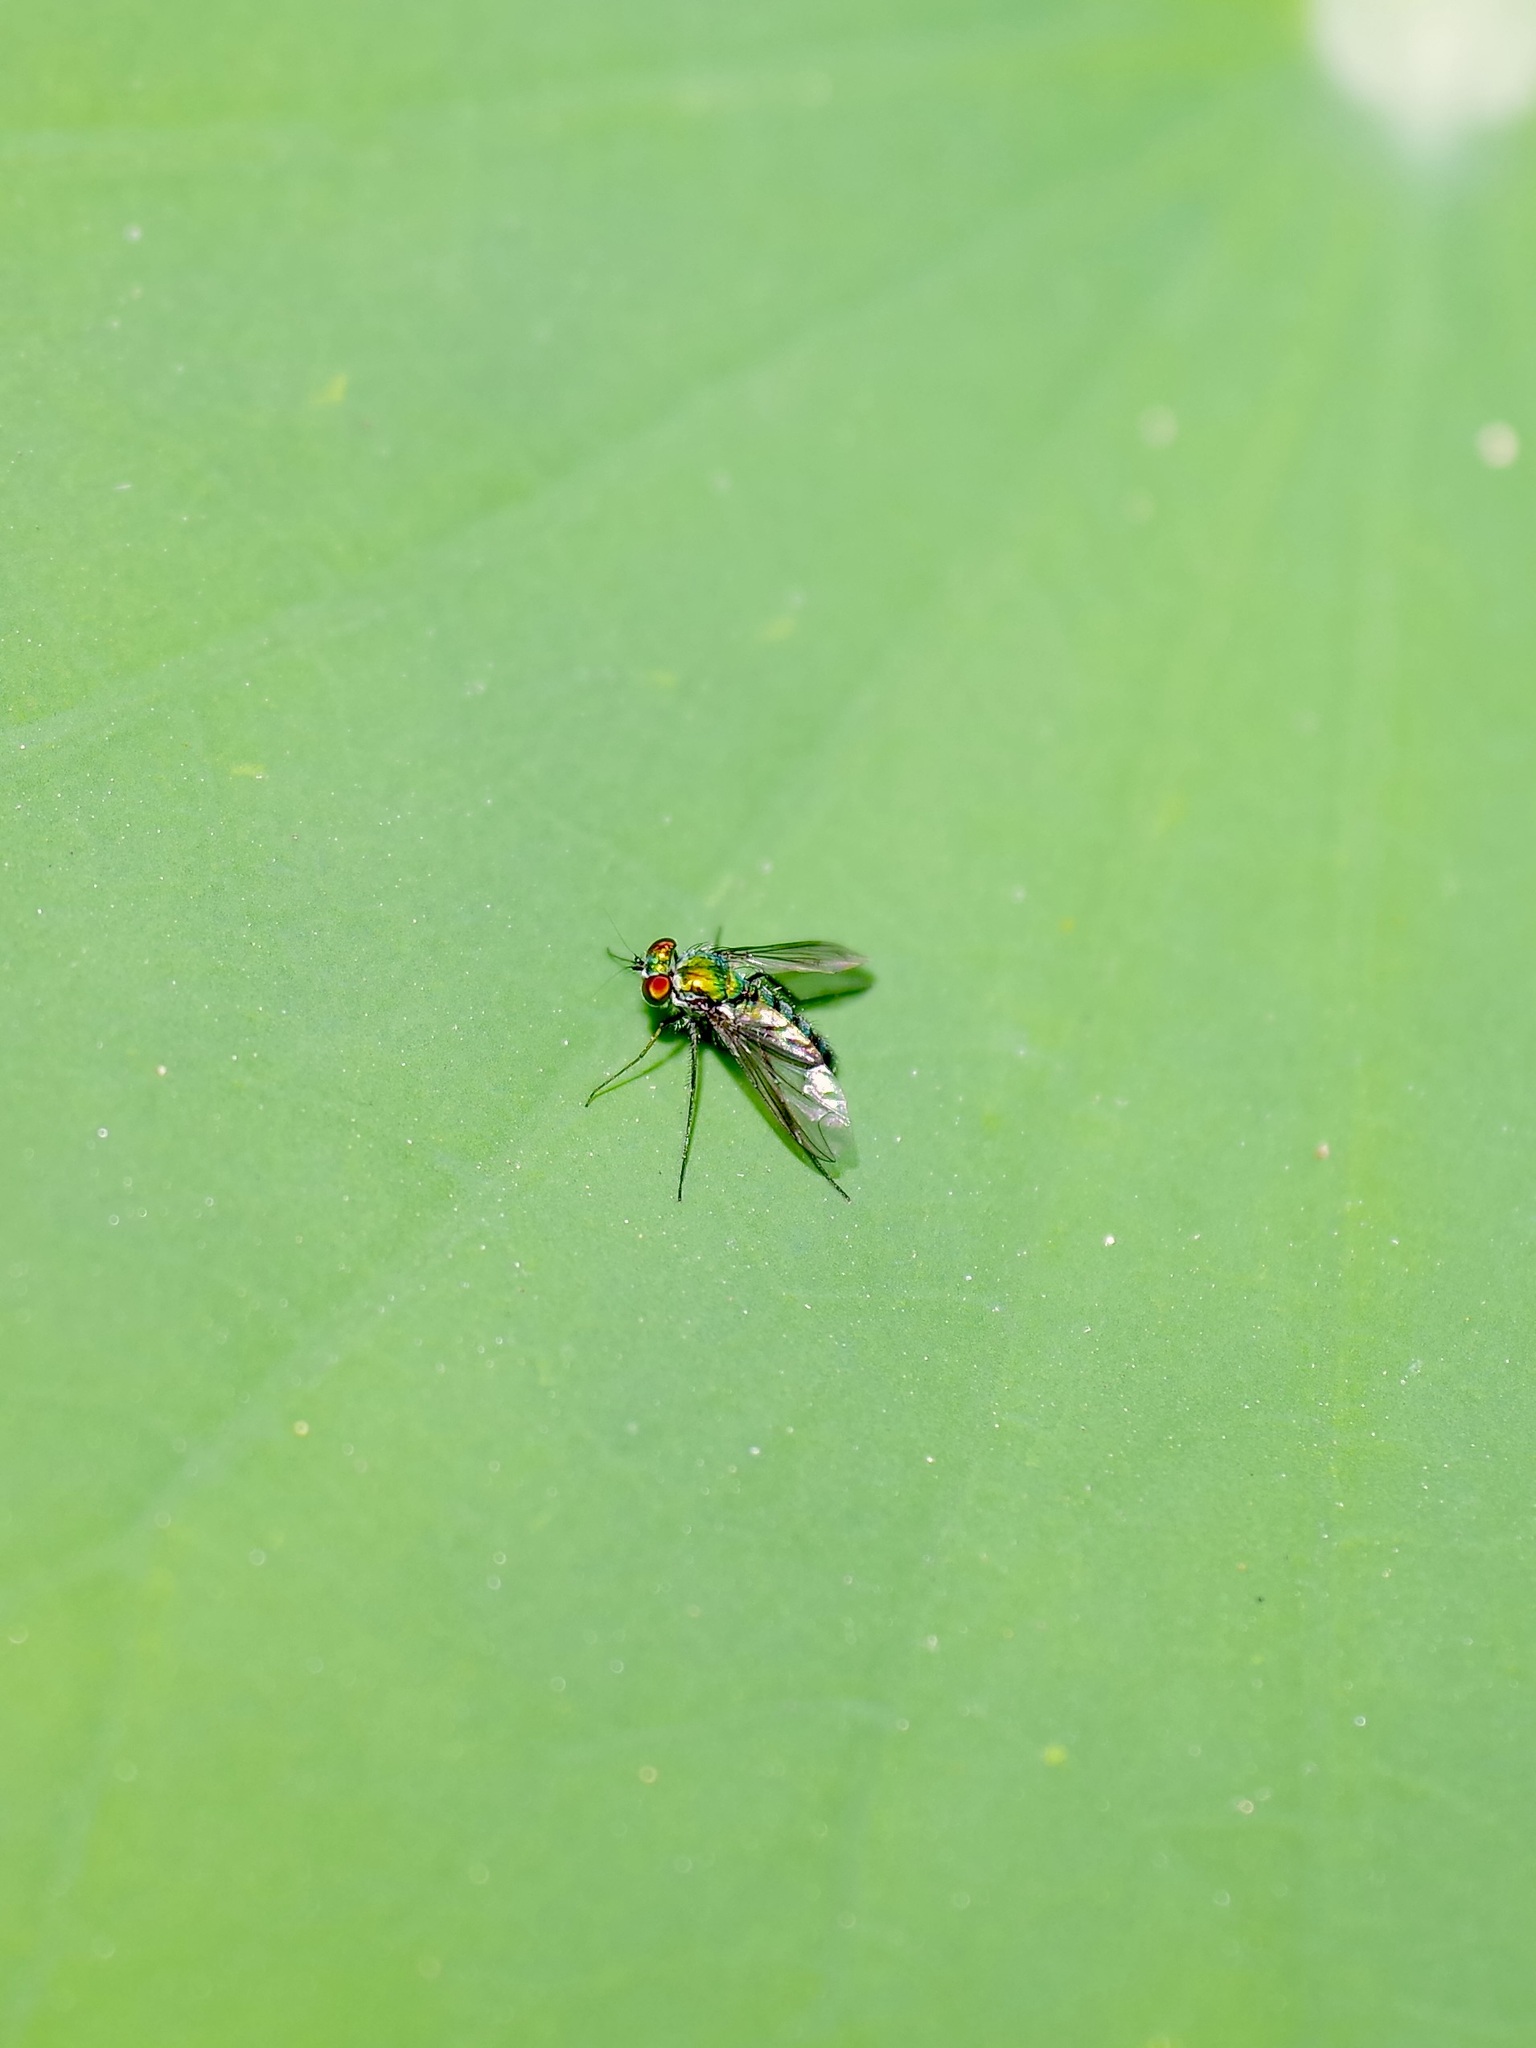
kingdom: Animalia
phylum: Arthropoda
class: Insecta
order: Diptera
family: Dolichopodidae
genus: Condylostylus
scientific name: Condylostylus longicornis
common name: Long-legged fly
